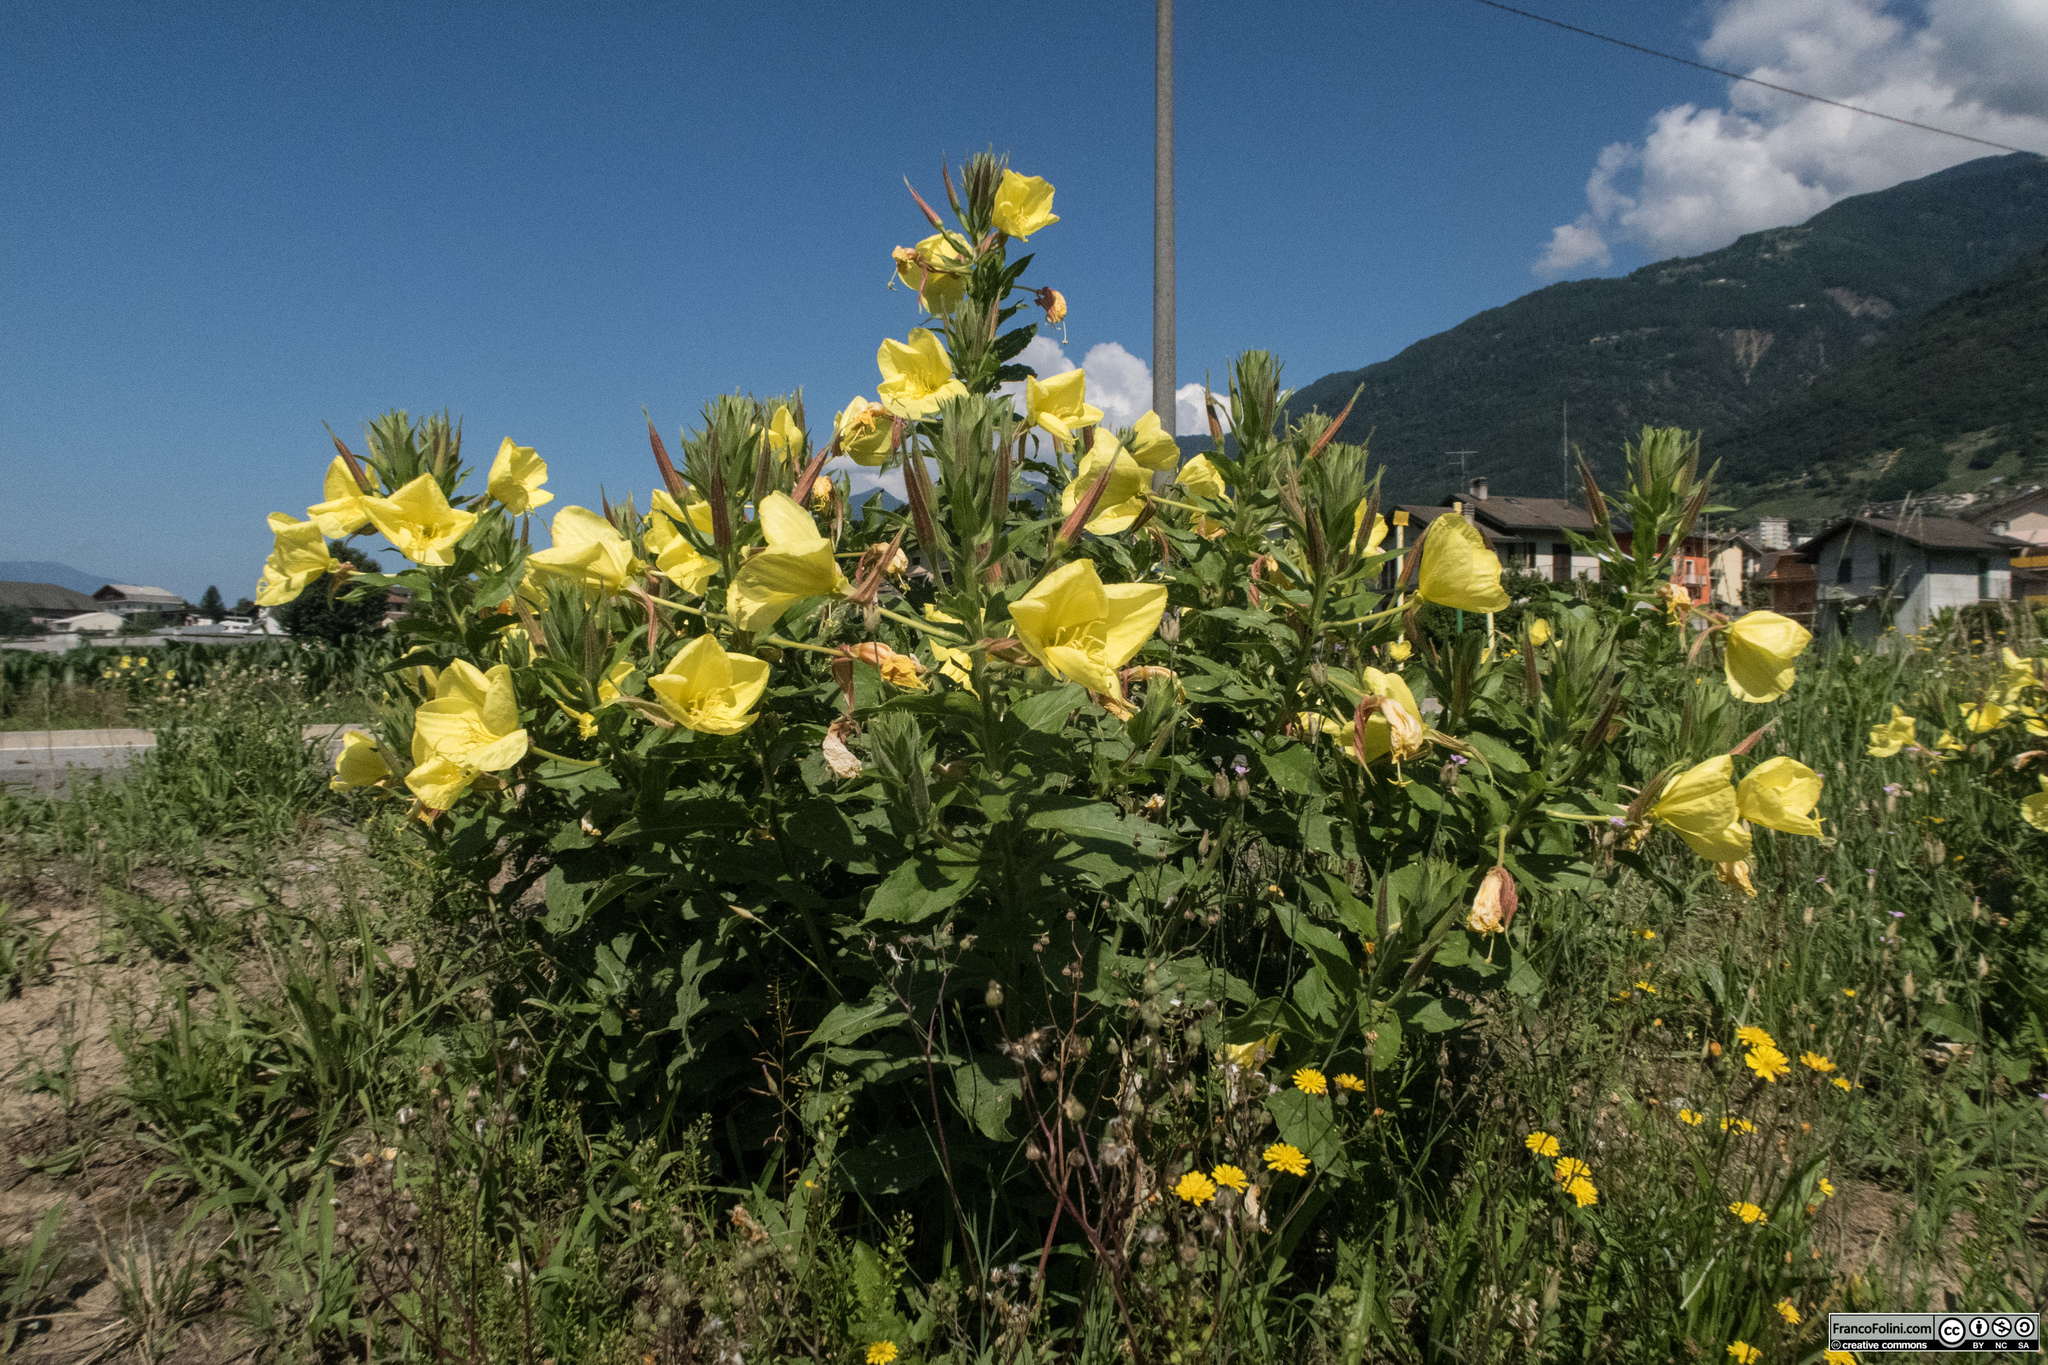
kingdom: Plantae
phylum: Tracheophyta
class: Magnoliopsida
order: Myrtales
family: Onagraceae
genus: Oenothera
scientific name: Oenothera glazioviana
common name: Large-flowered evening-primrose
